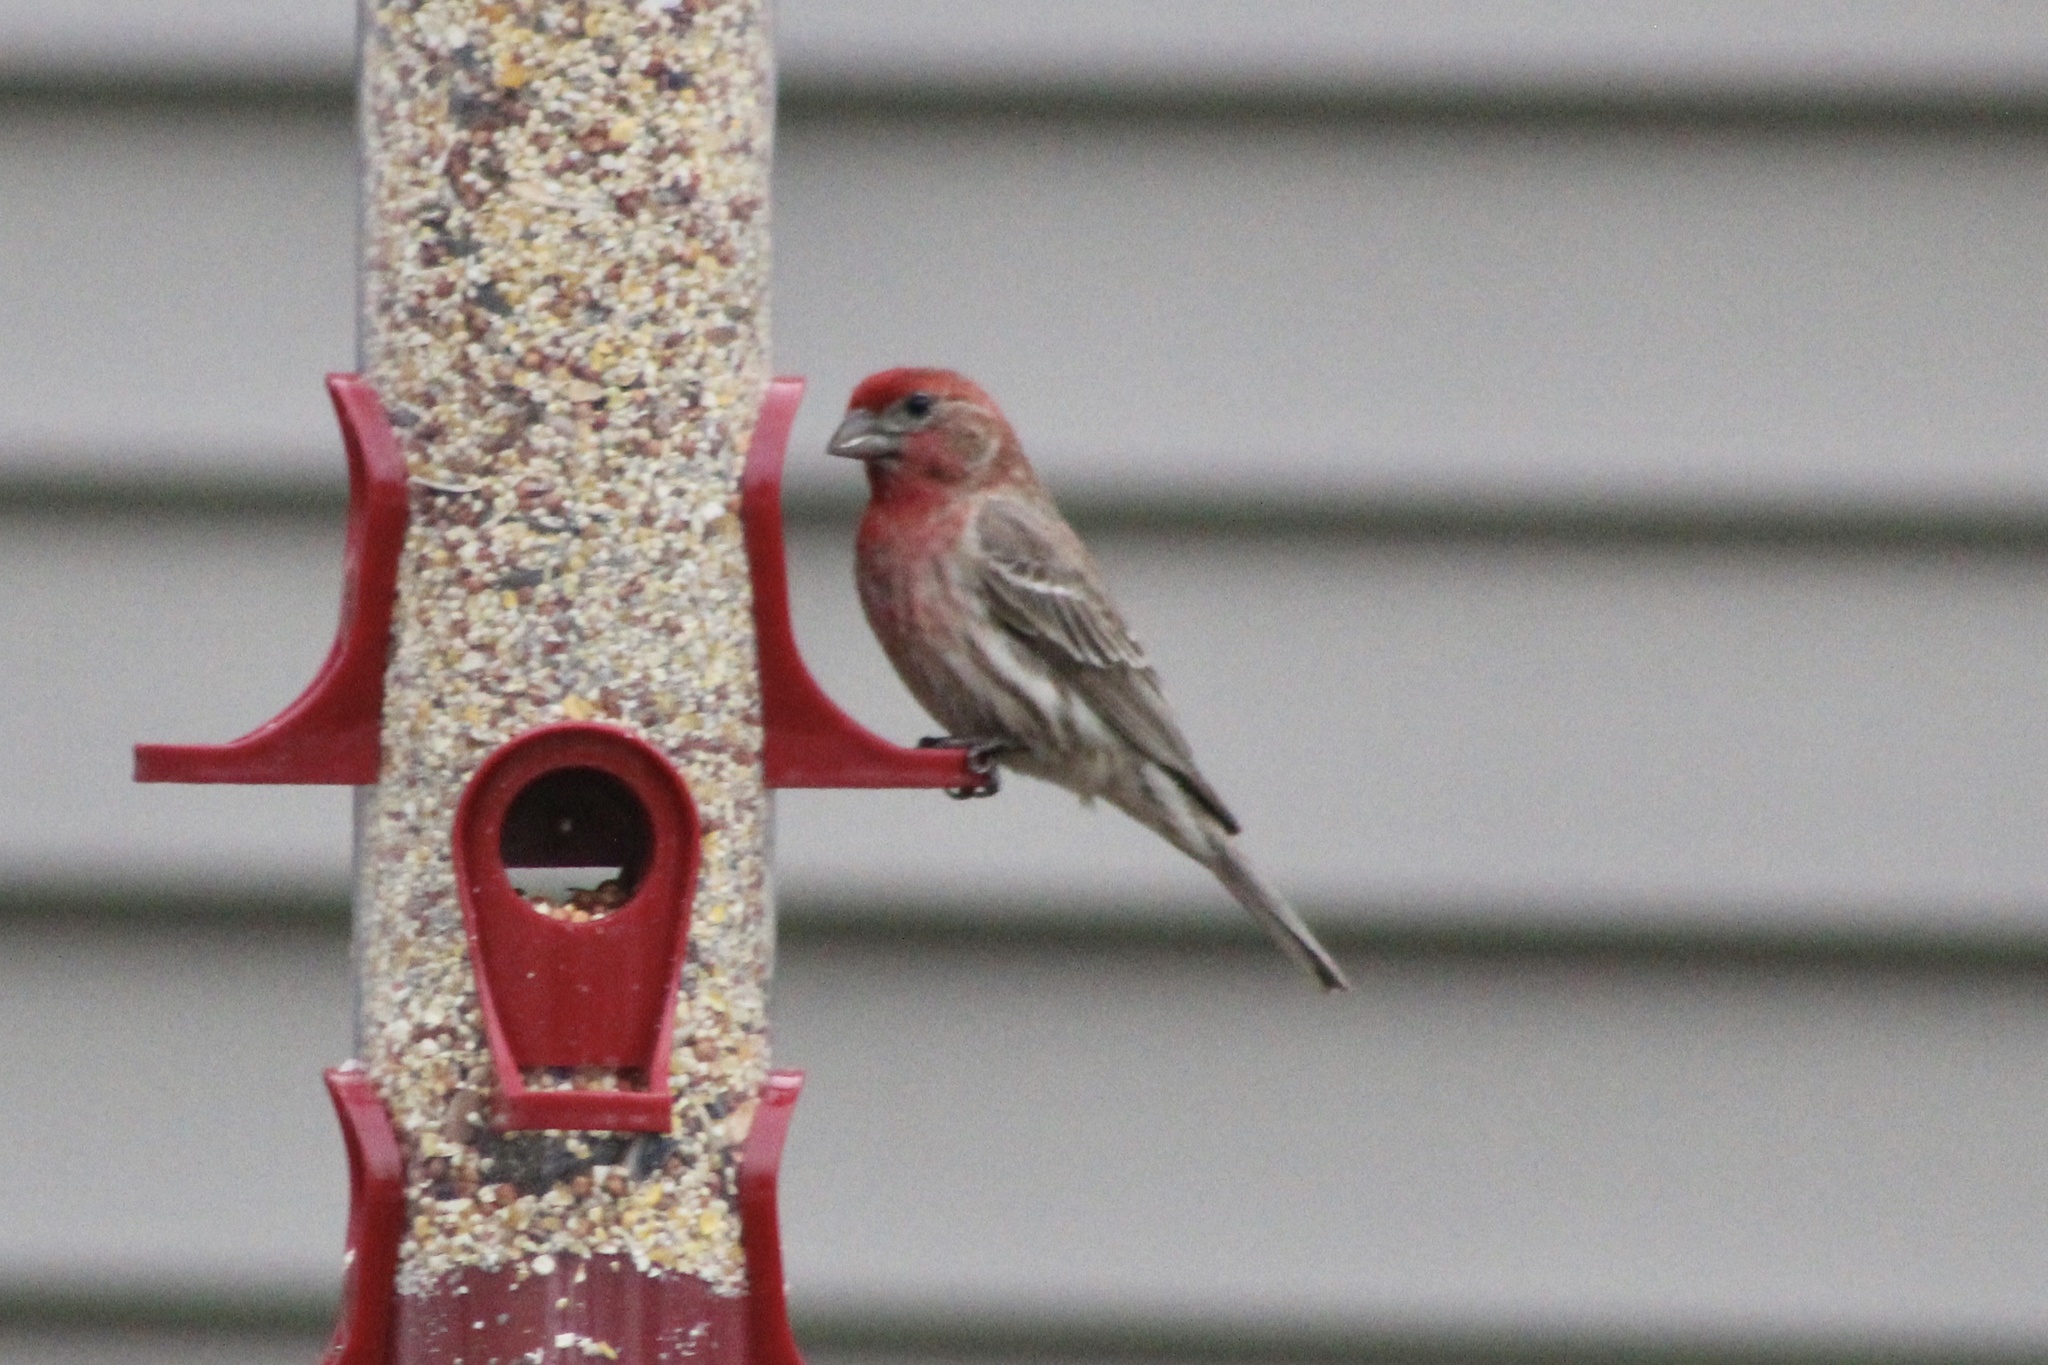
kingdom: Animalia
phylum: Chordata
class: Aves
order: Passeriformes
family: Fringillidae
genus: Haemorhous
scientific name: Haemorhous mexicanus
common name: House finch
